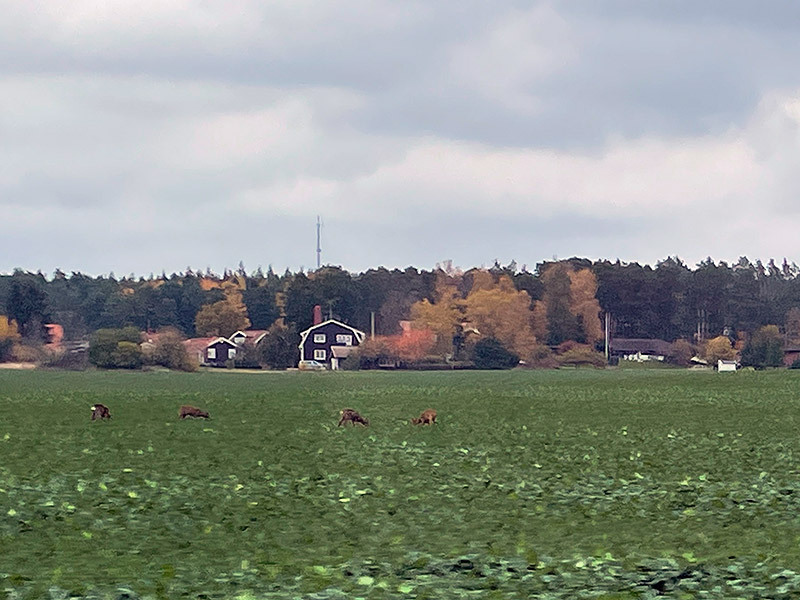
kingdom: Animalia
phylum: Chordata
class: Mammalia
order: Artiodactyla
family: Cervidae
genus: Capreolus
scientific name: Capreolus capreolus
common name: Western roe deer
